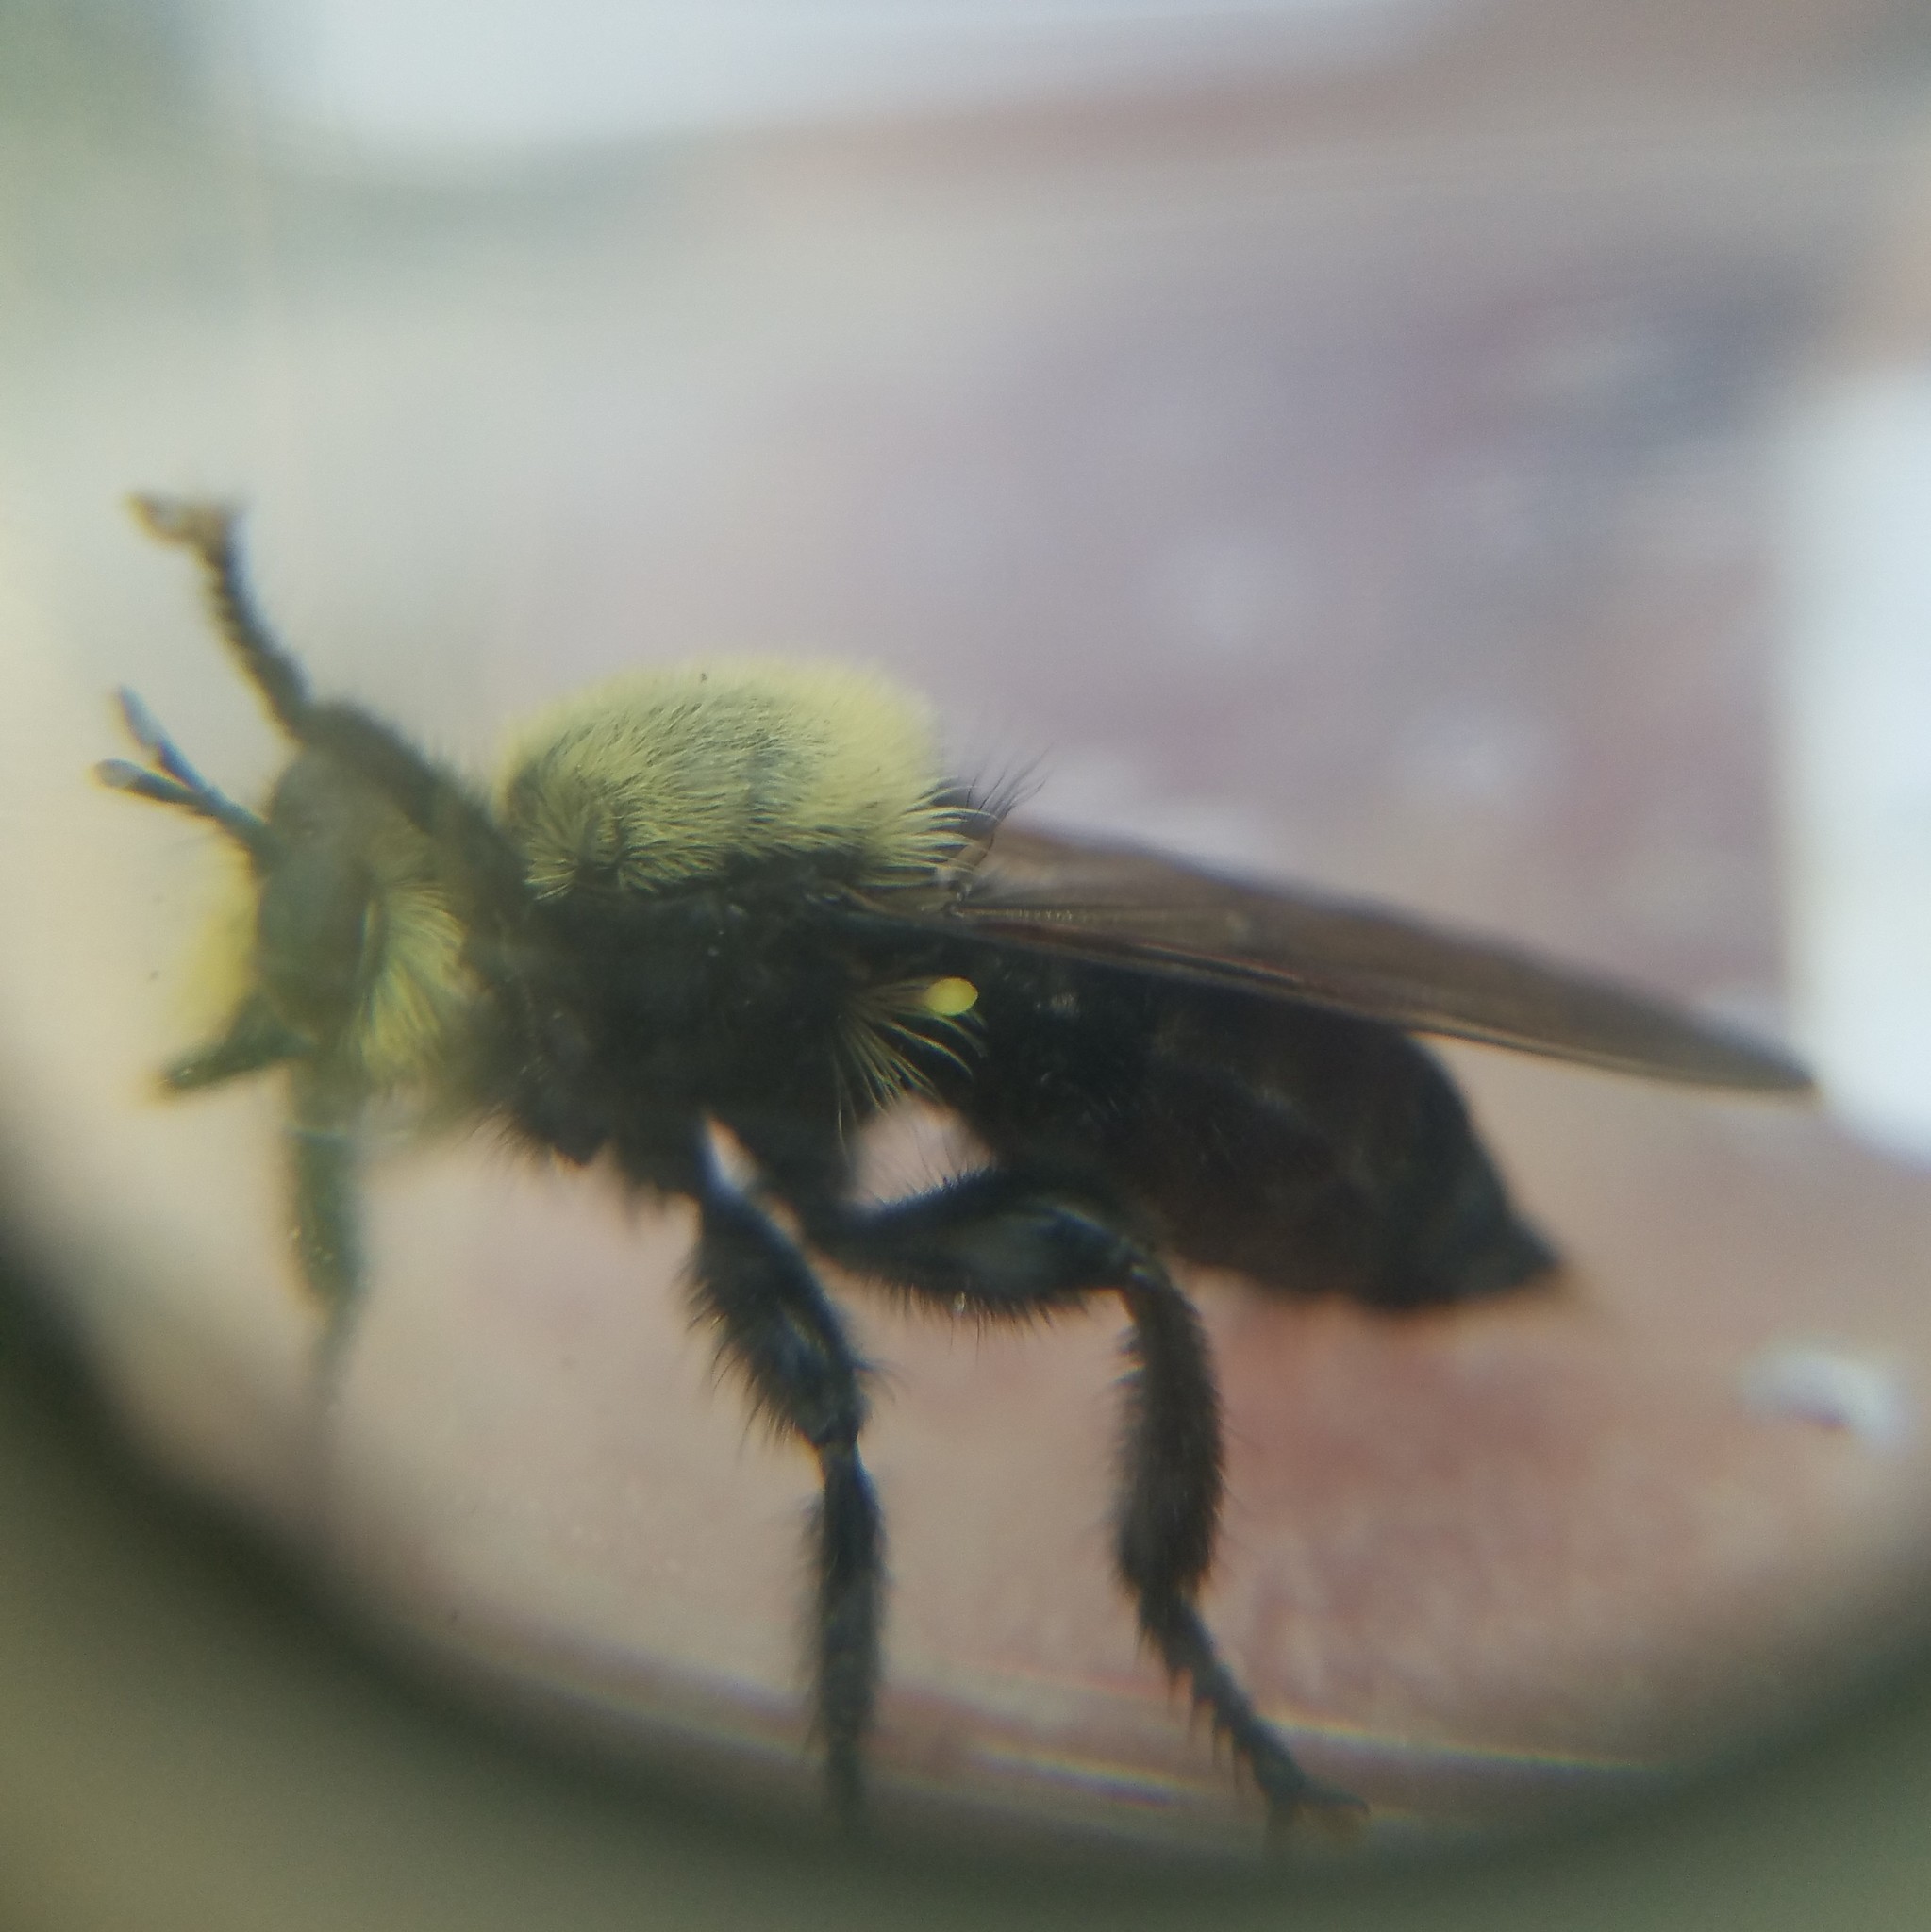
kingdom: Animalia
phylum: Arthropoda
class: Insecta
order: Diptera
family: Asilidae
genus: Laphria
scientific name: Laphria virginica
